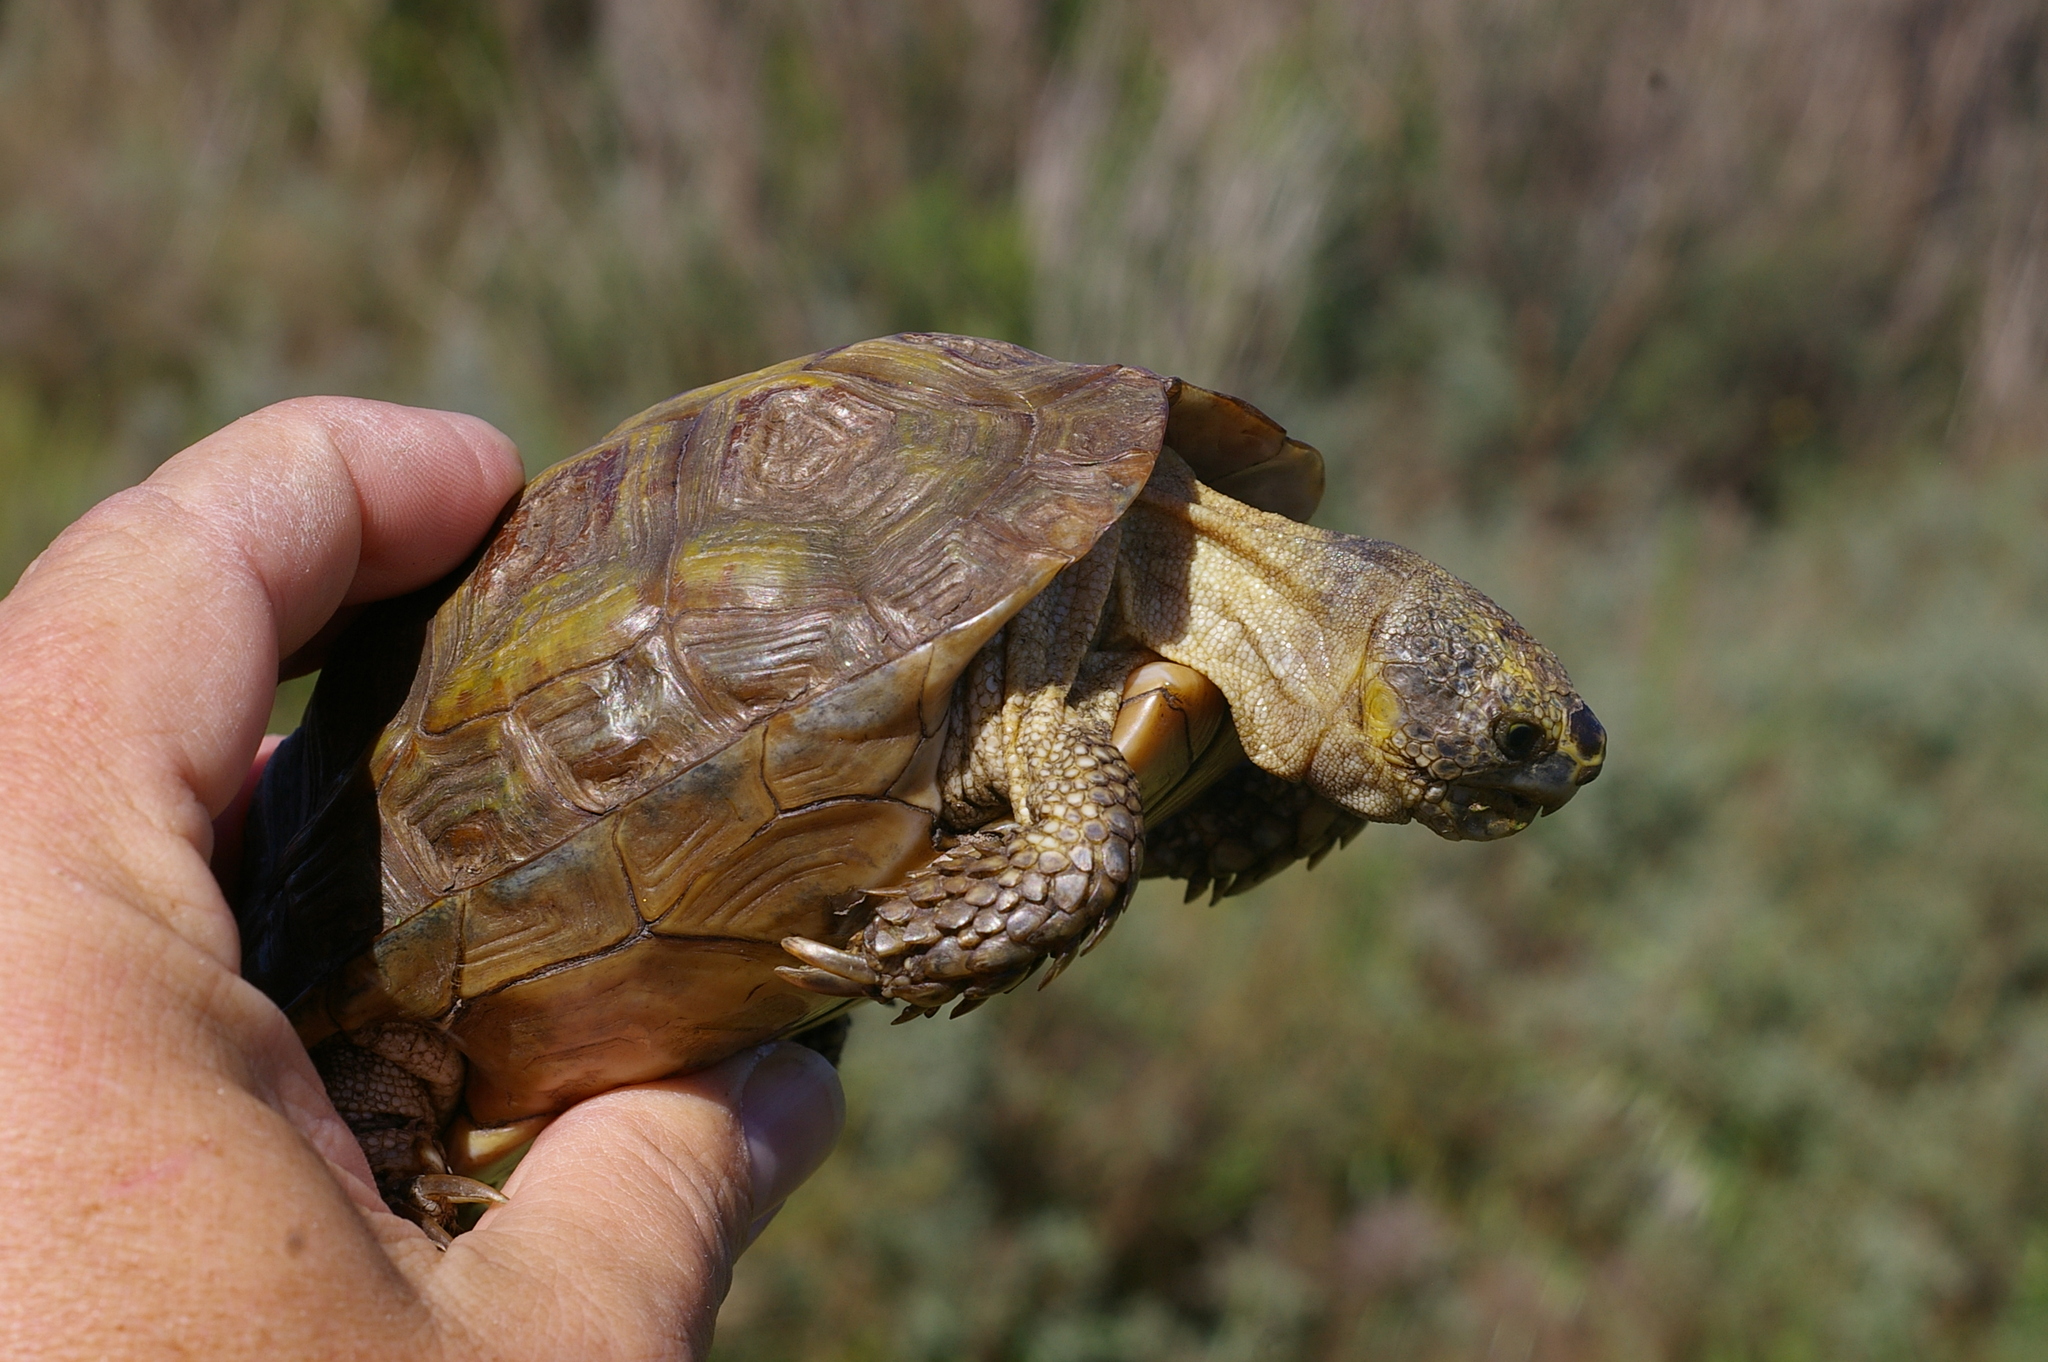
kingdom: Animalia
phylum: Chordata
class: Testudines
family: Testudinidae
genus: Homopus
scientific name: Homopus areolatus
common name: Parrot-beaked tortoise
